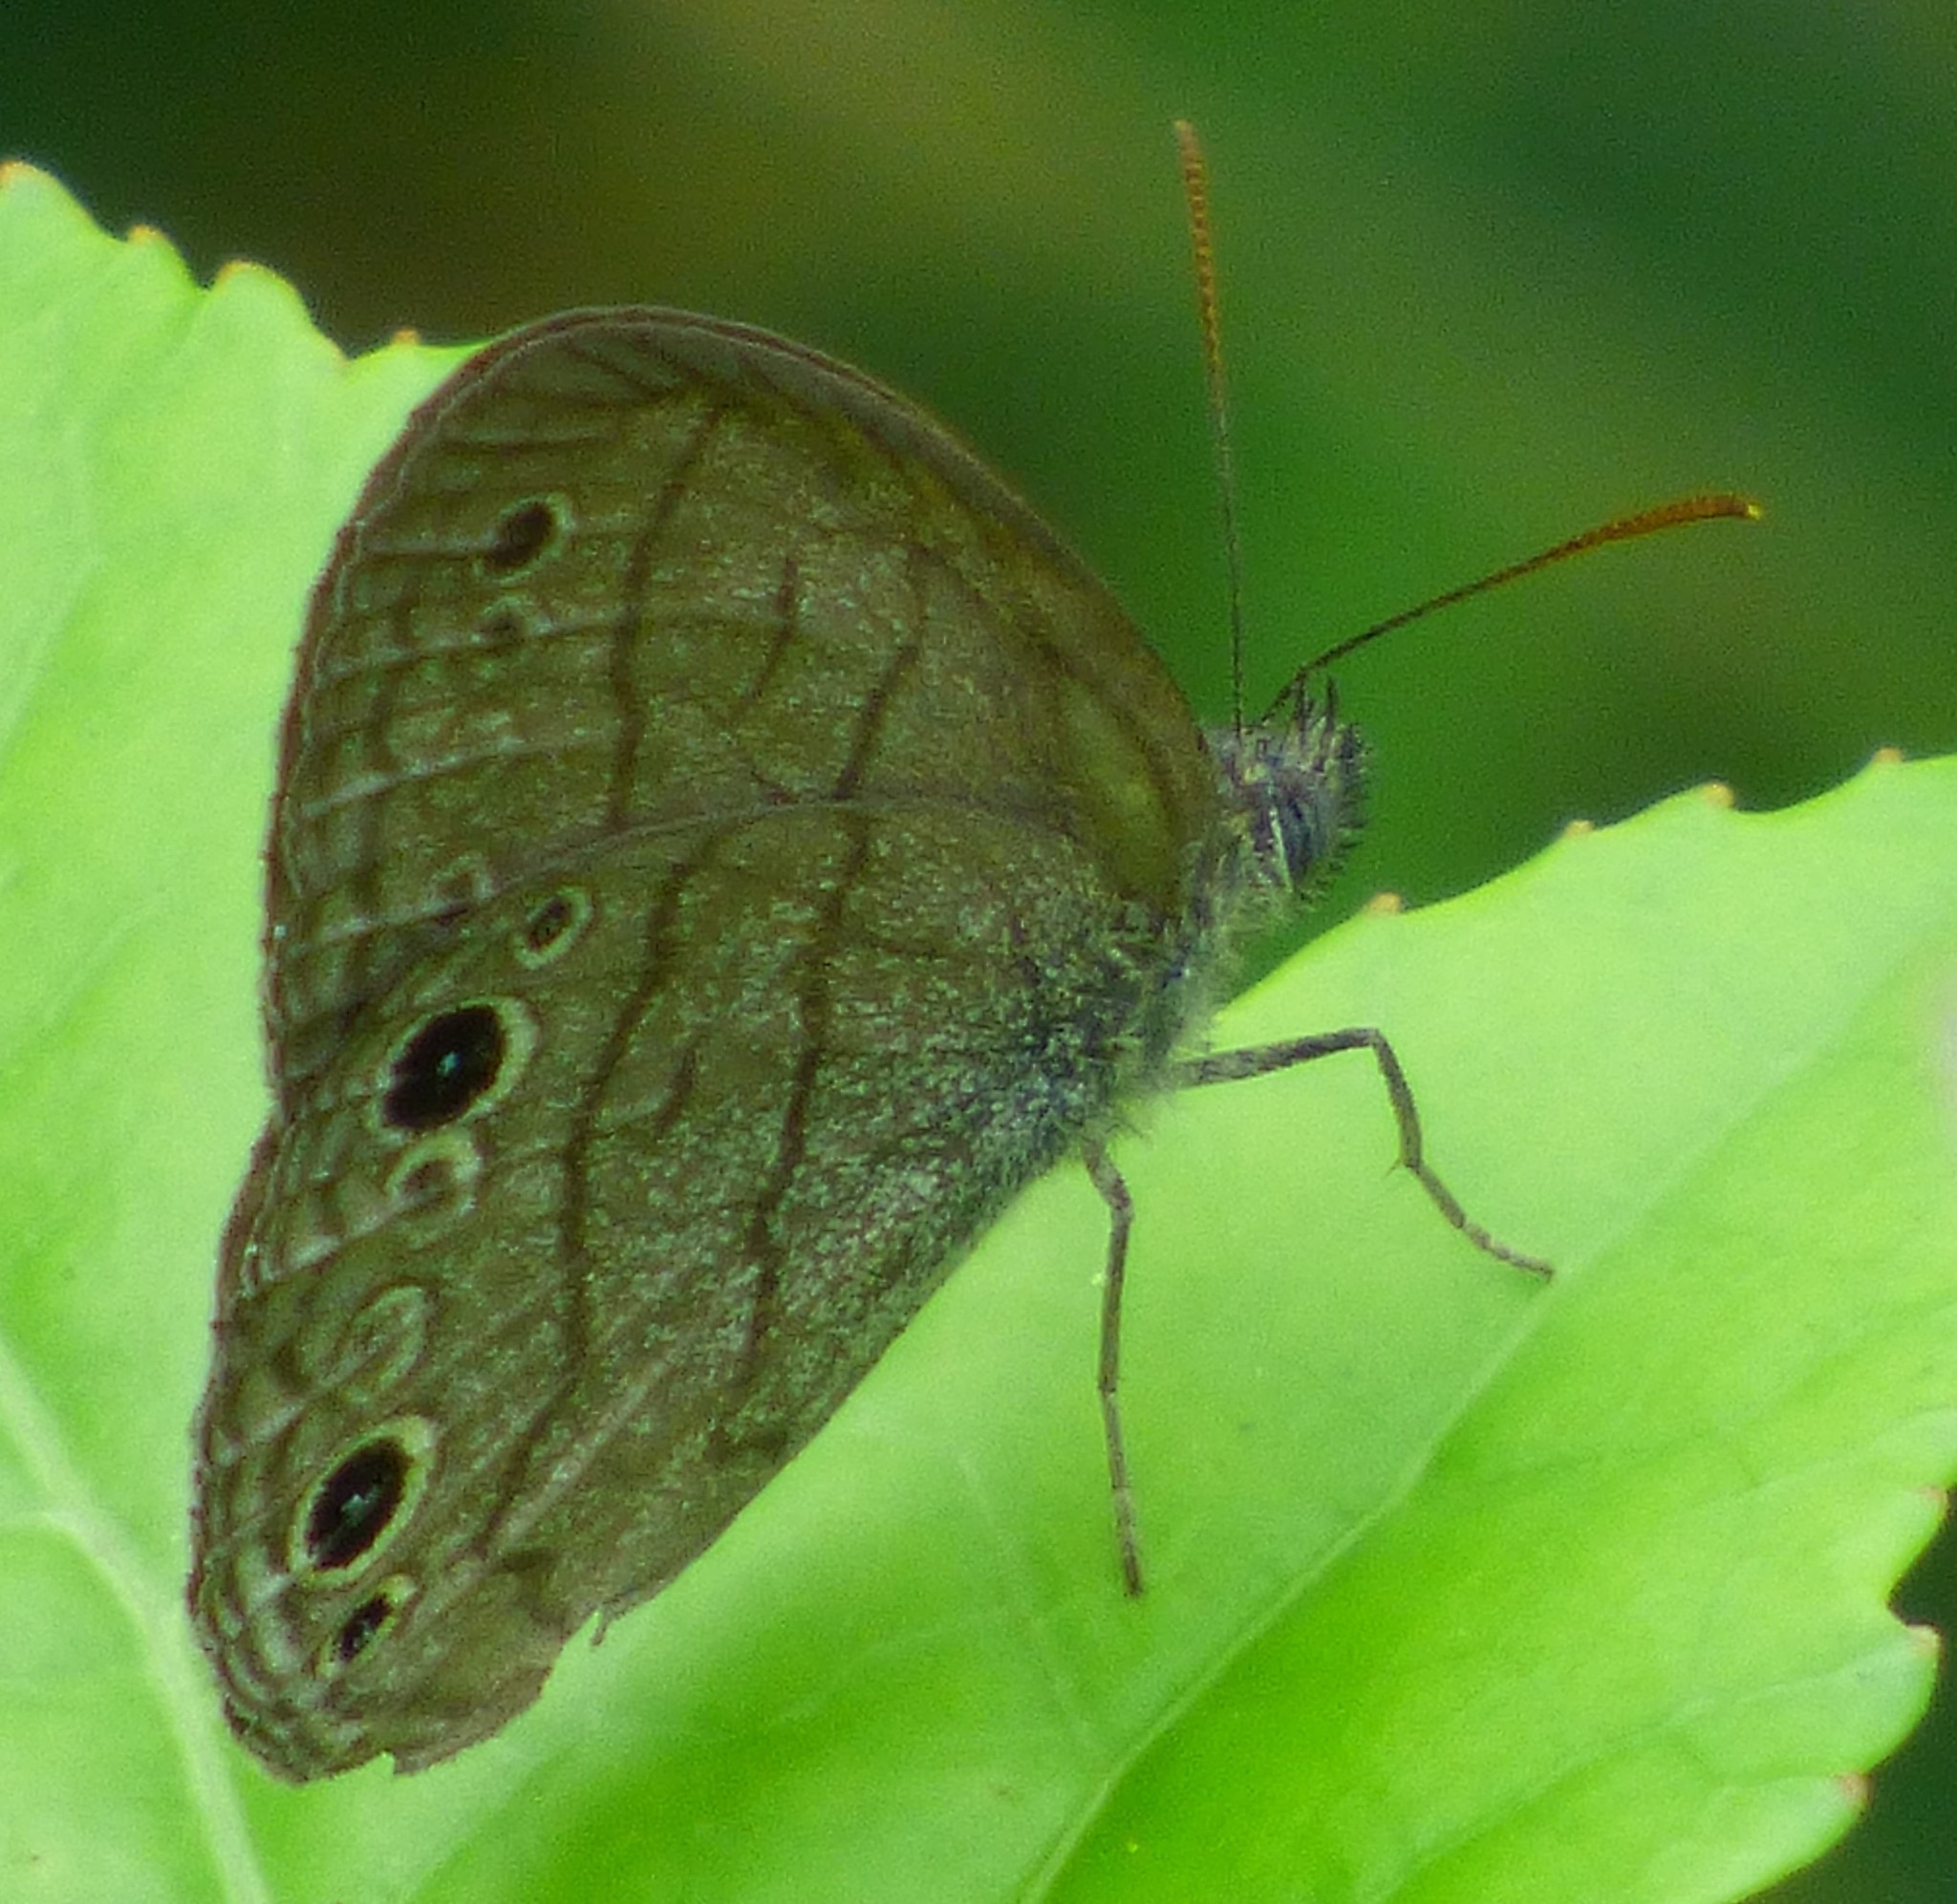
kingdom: Animalia
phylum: Arthropoda
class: Insecta
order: Lepidoptera
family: Nymphalidae
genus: Hermeuptychia
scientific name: Hermeuptychia hermes
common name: Hermes satyr
